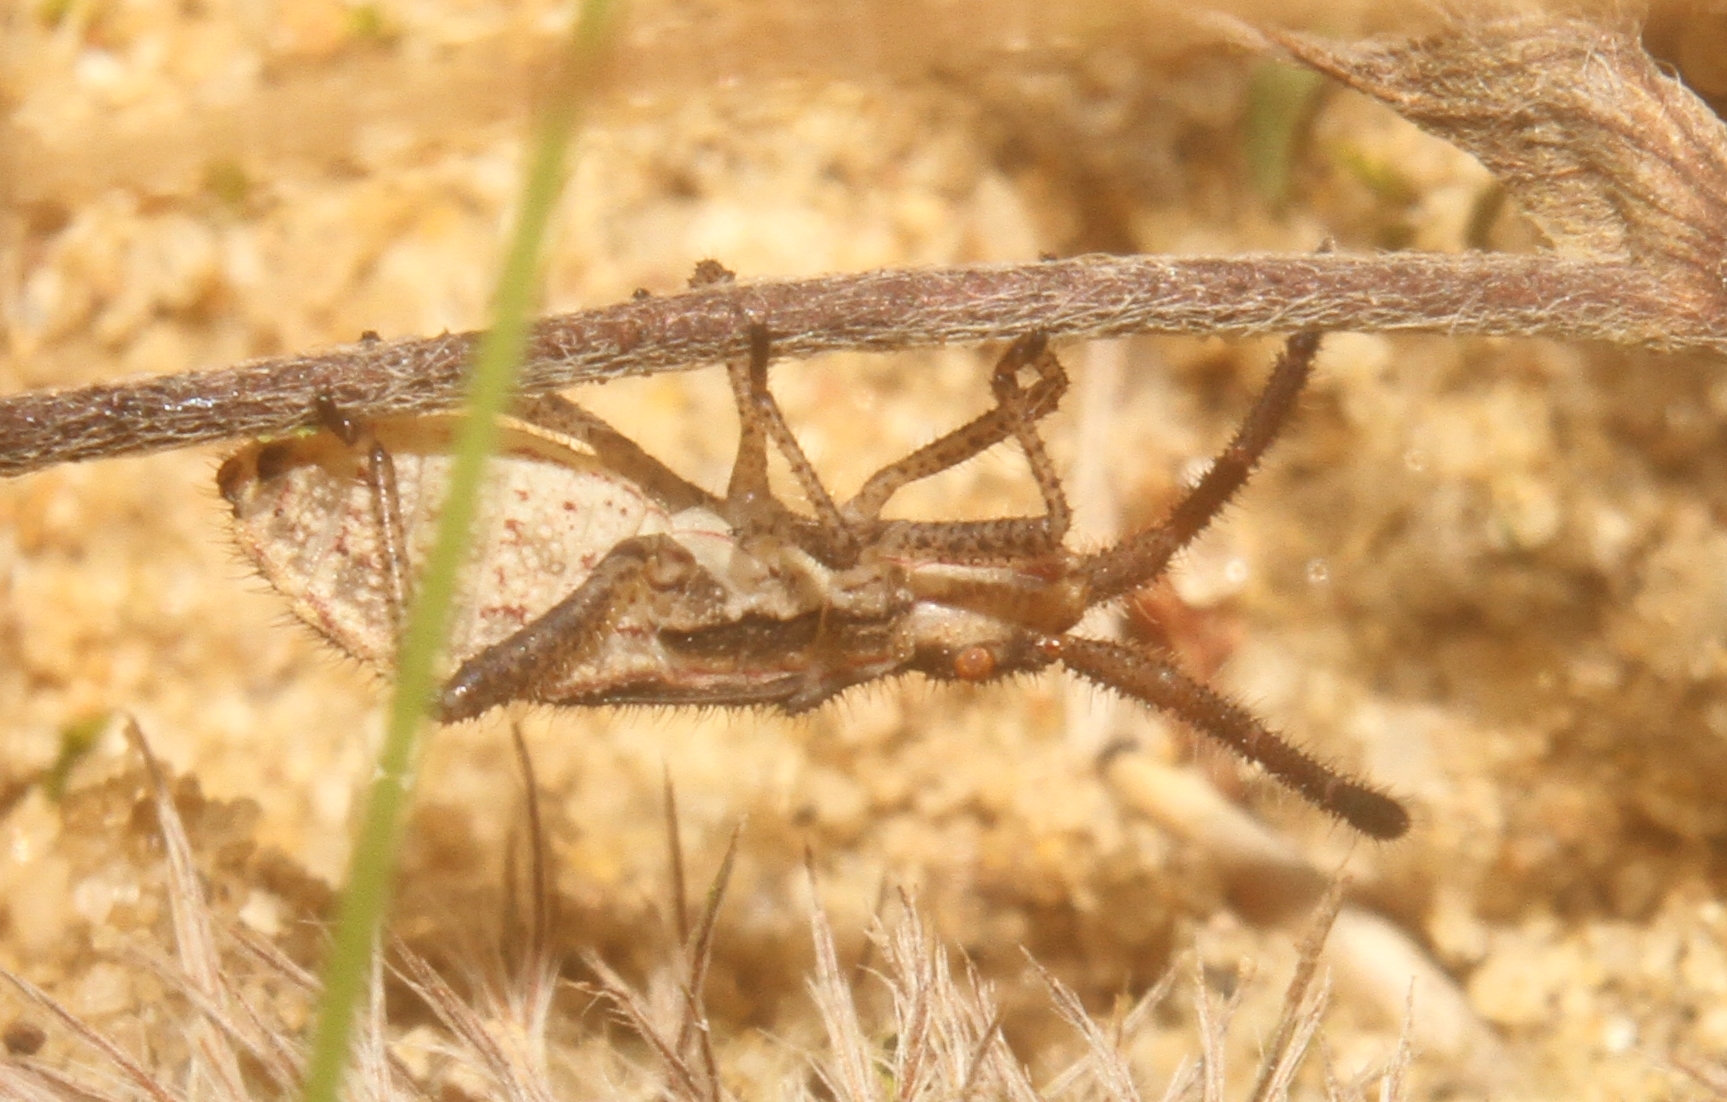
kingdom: Animalia
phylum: Arthropoda
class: Insecta
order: Hemiptera
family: Coreidae
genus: Coriomeris
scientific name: Coriomeris denticulatus
